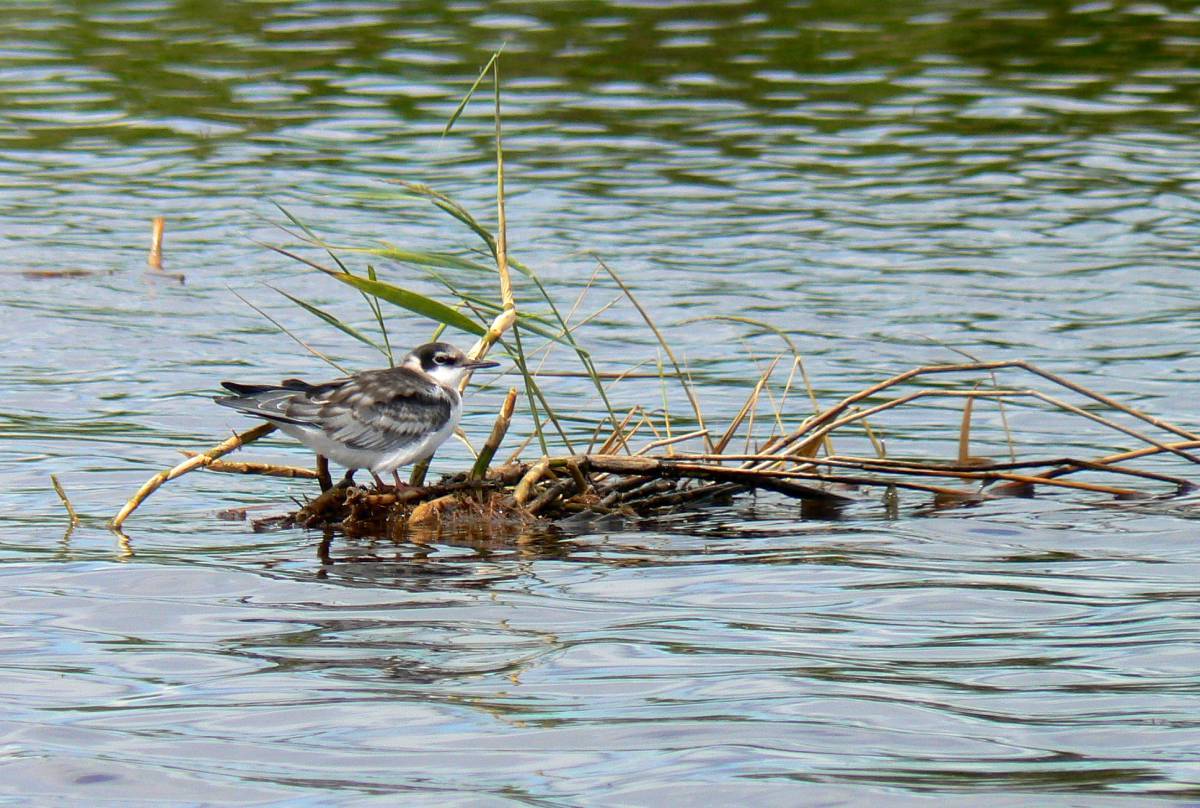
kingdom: Animalia
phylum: Chordata
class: Aves
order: Charadriiformes
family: Laridae
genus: Chlidonias
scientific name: Chlidonias niger
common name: Black tern
